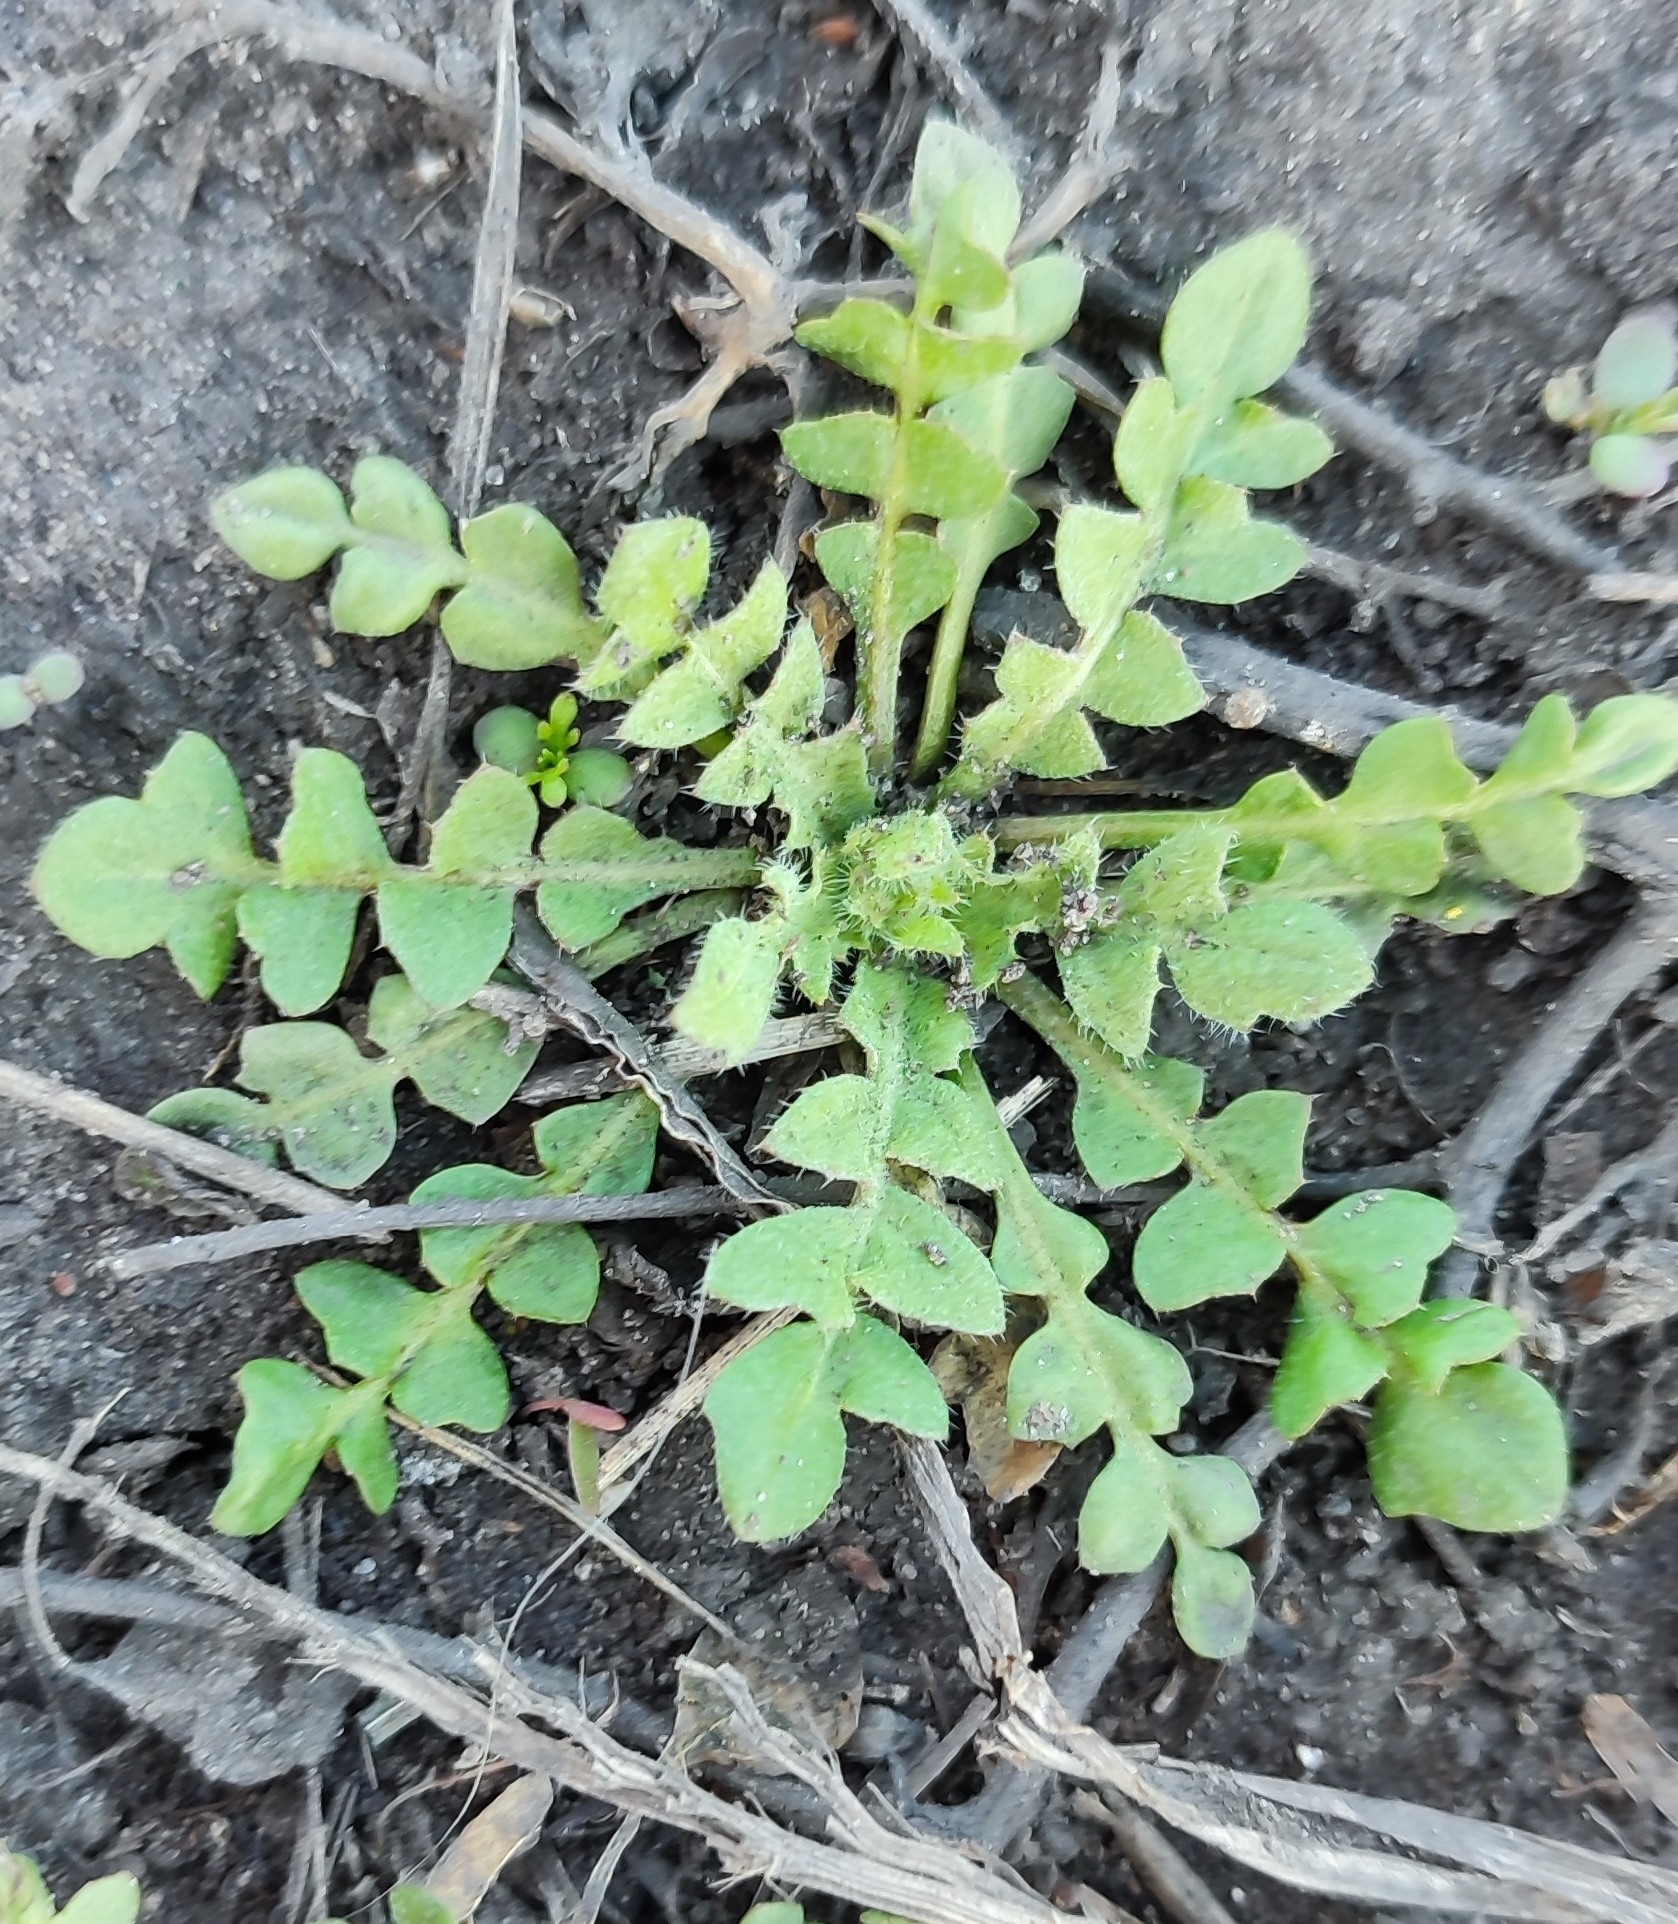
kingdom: Plantae
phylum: Tracheophyta
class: Magnoliopsida
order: Brassicales
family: Brassicaceae
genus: Capsella
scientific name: Capsella bursa-pastoris
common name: Shepherd's purse
